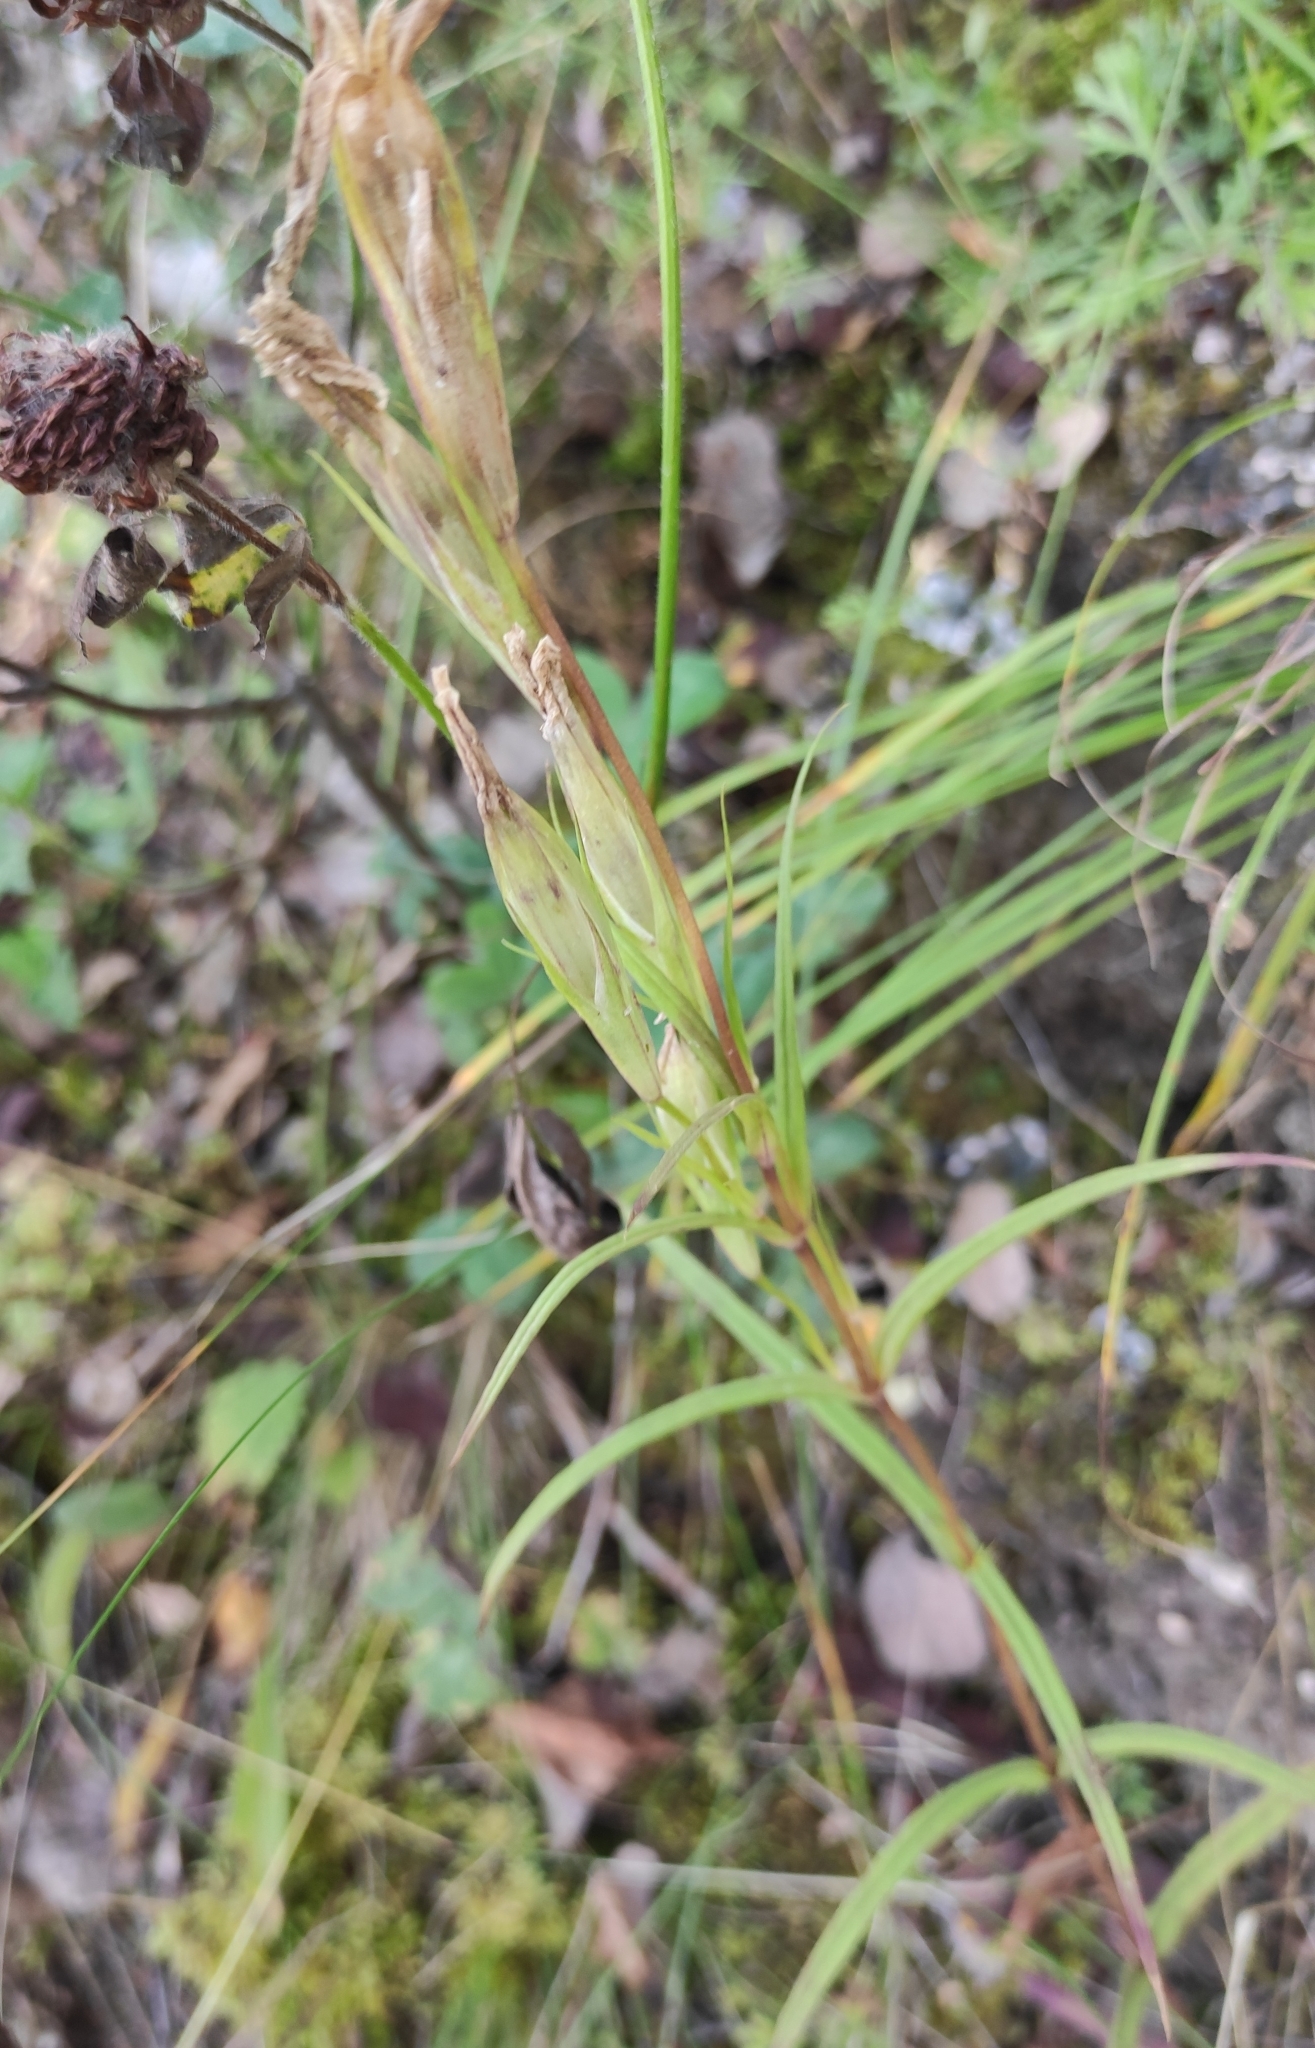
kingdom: Plantae
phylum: Tracheophyta
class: Magnoliopsida
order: Gentianales
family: Gentianaceae
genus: Gentianopsis
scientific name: Gentianopsis barbata
